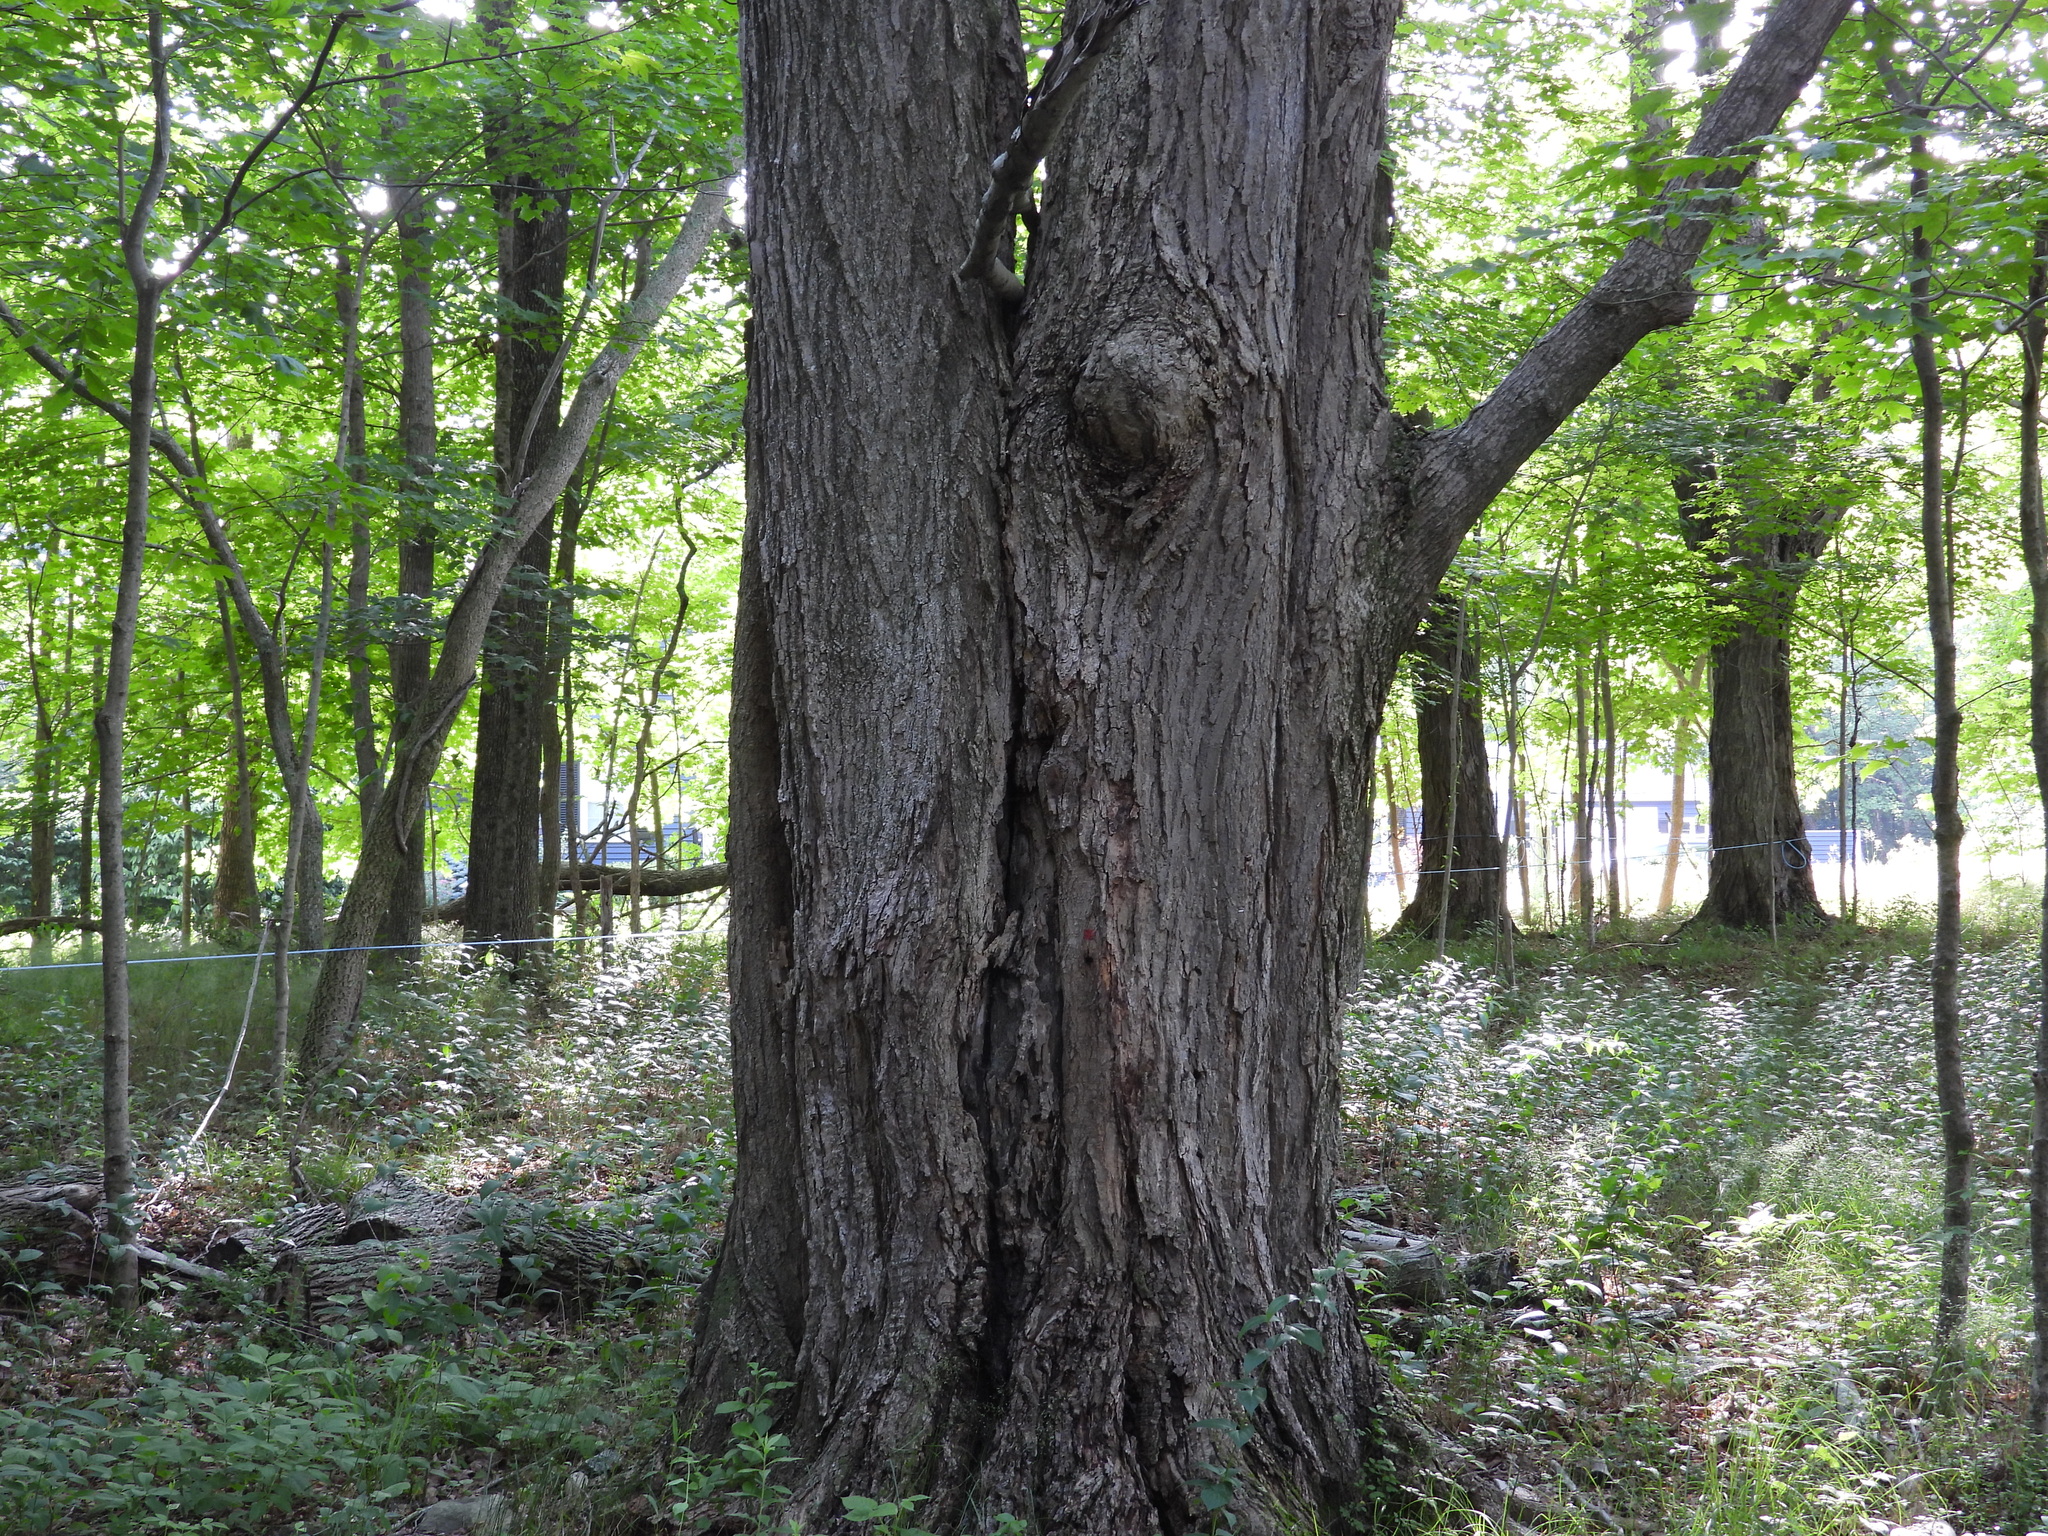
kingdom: Plantae
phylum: Tracheophyta
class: Magnoliopsida
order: Sapindales
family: Sapindaceae
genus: Acer
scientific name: Acer saccharum
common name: Sugar maple
